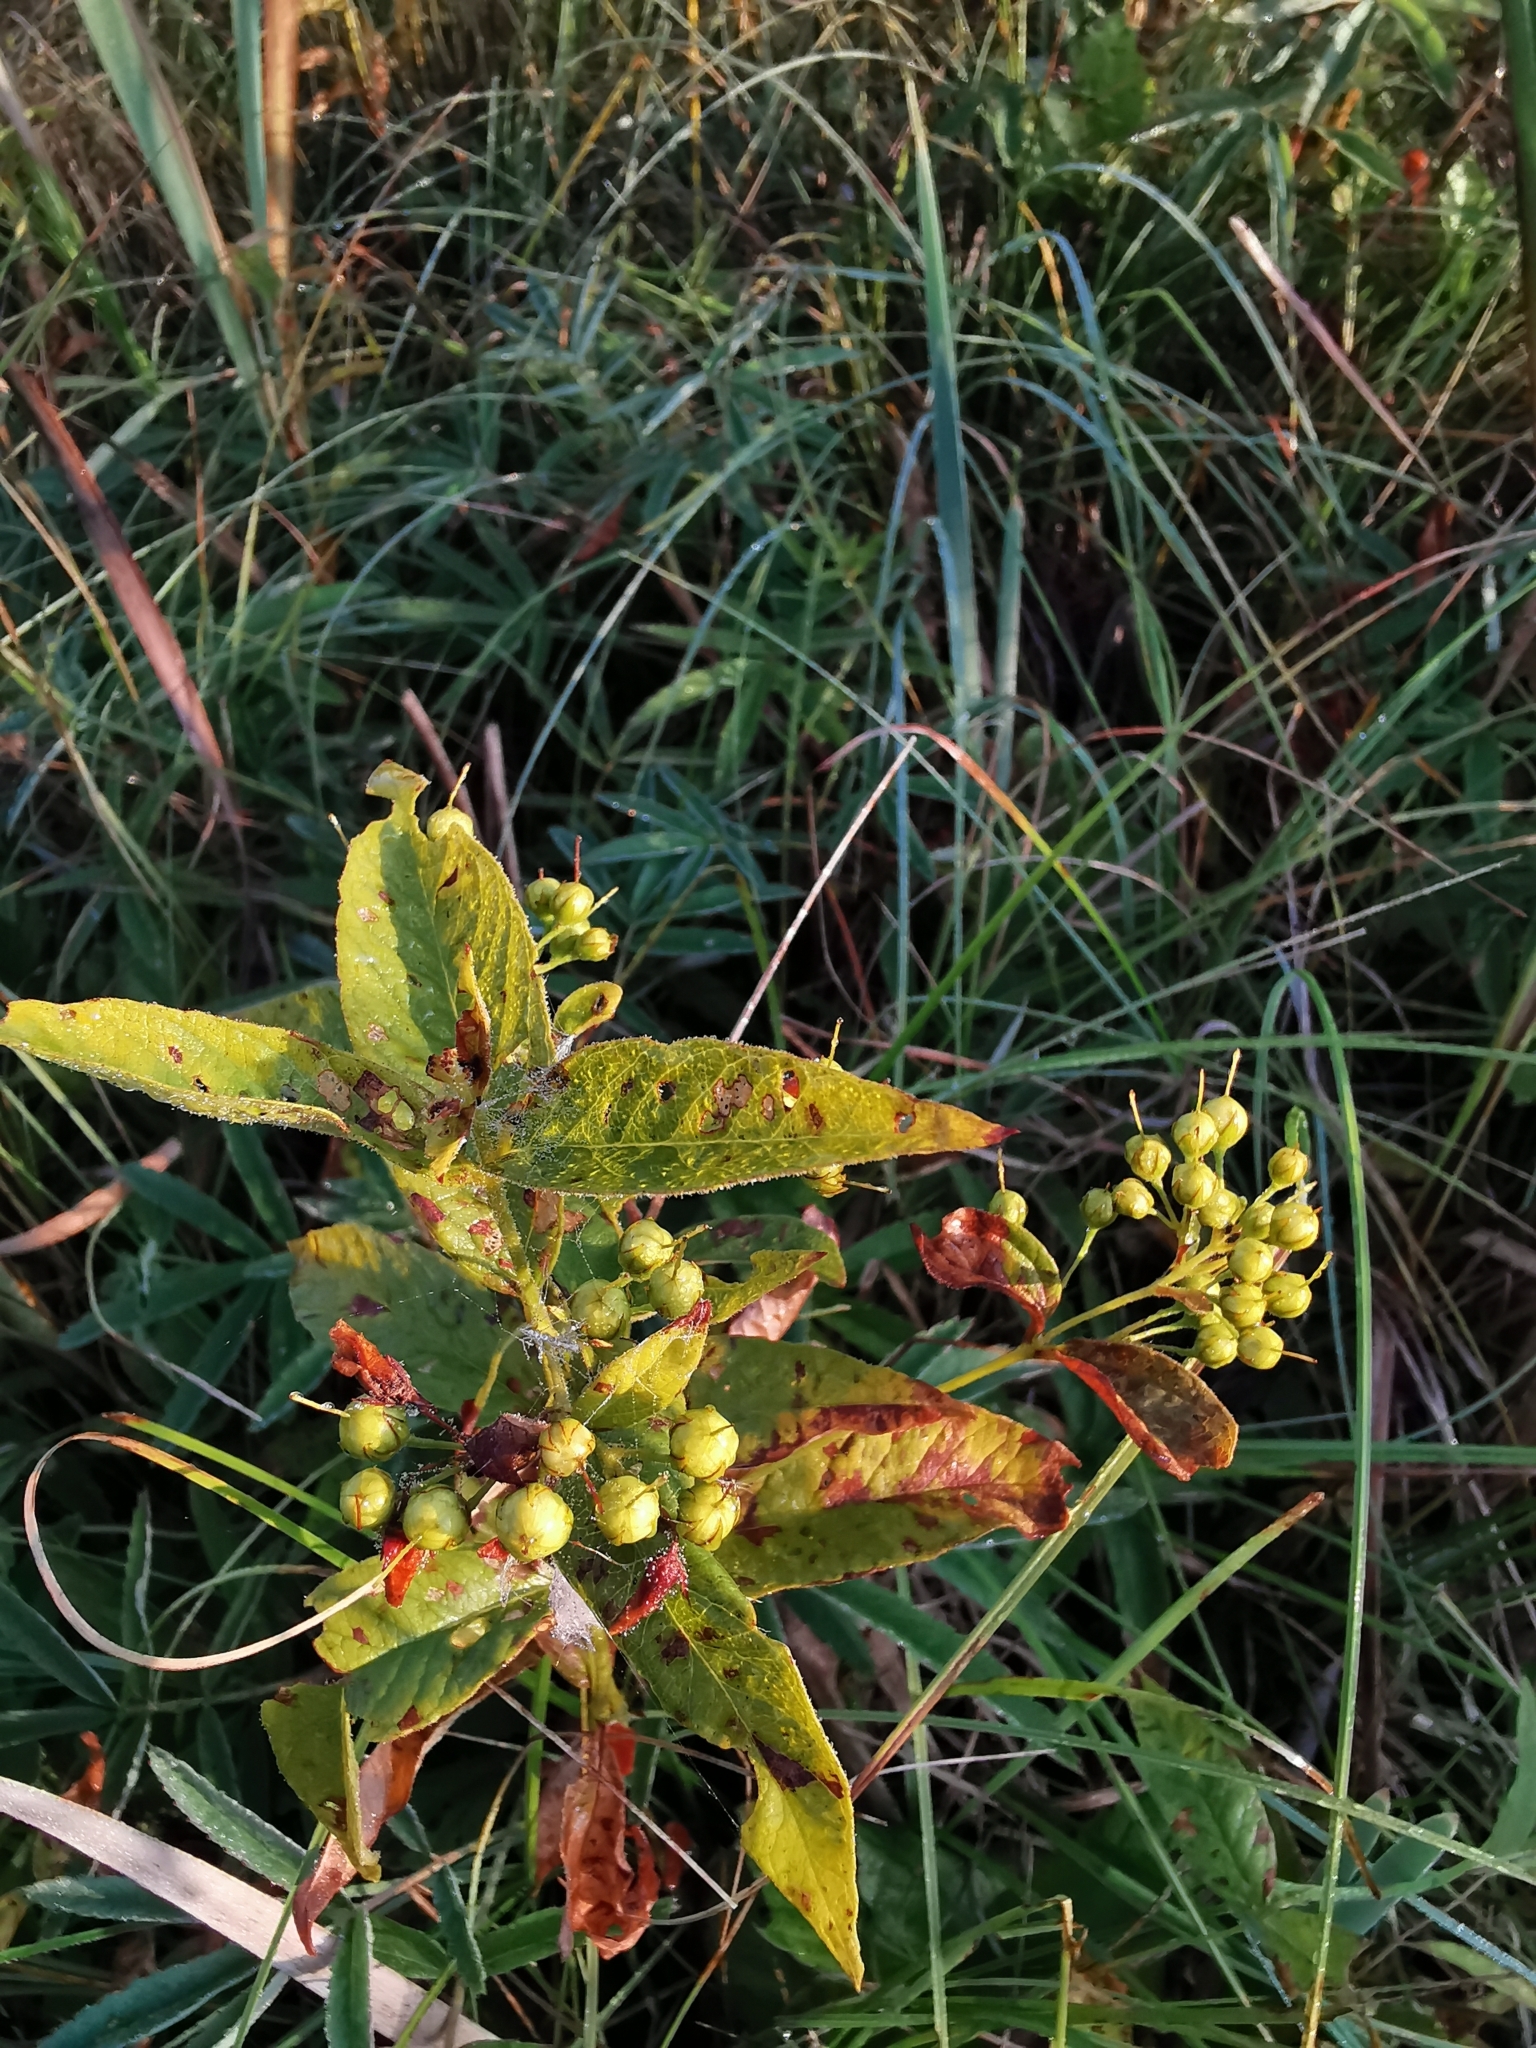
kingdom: Plantae
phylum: Tracheophyta
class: Magnoliopsida
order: Ericales
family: Primulaceae
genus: Lysimachia
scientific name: Lysimachia vulgaris
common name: Yellow loosestrife
